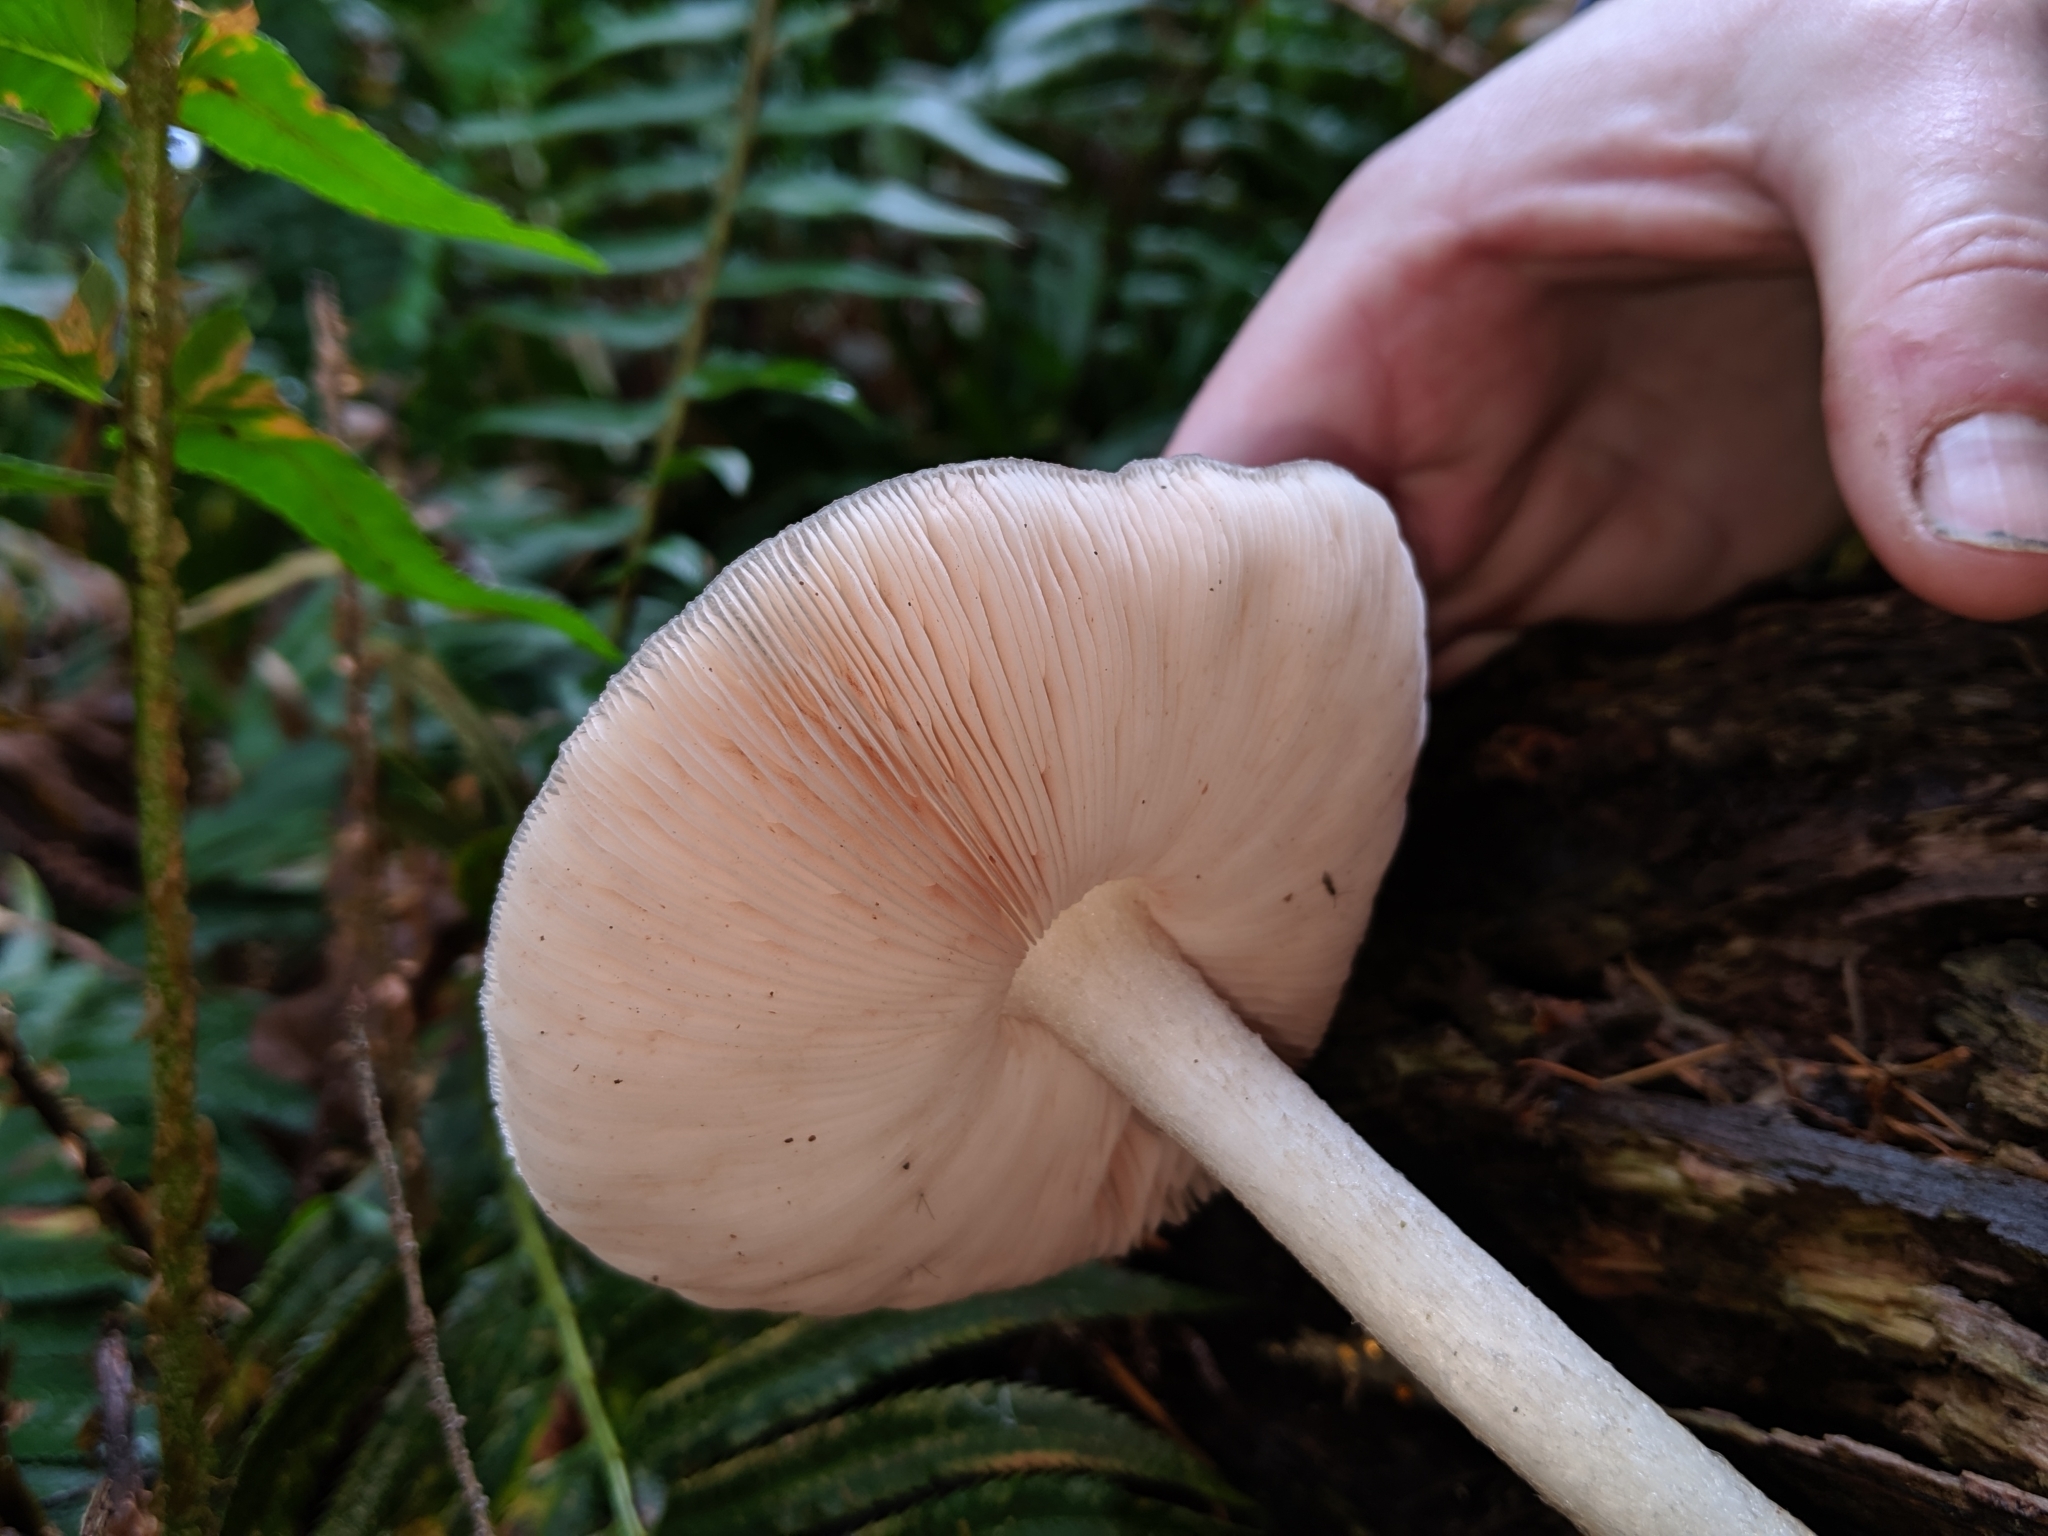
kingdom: Fungi
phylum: Basidiomycota
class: Agaricomycetes
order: Agaricales
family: Pluteaceae
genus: Pluteus
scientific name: Pluteus cervinus
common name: Deer shield
